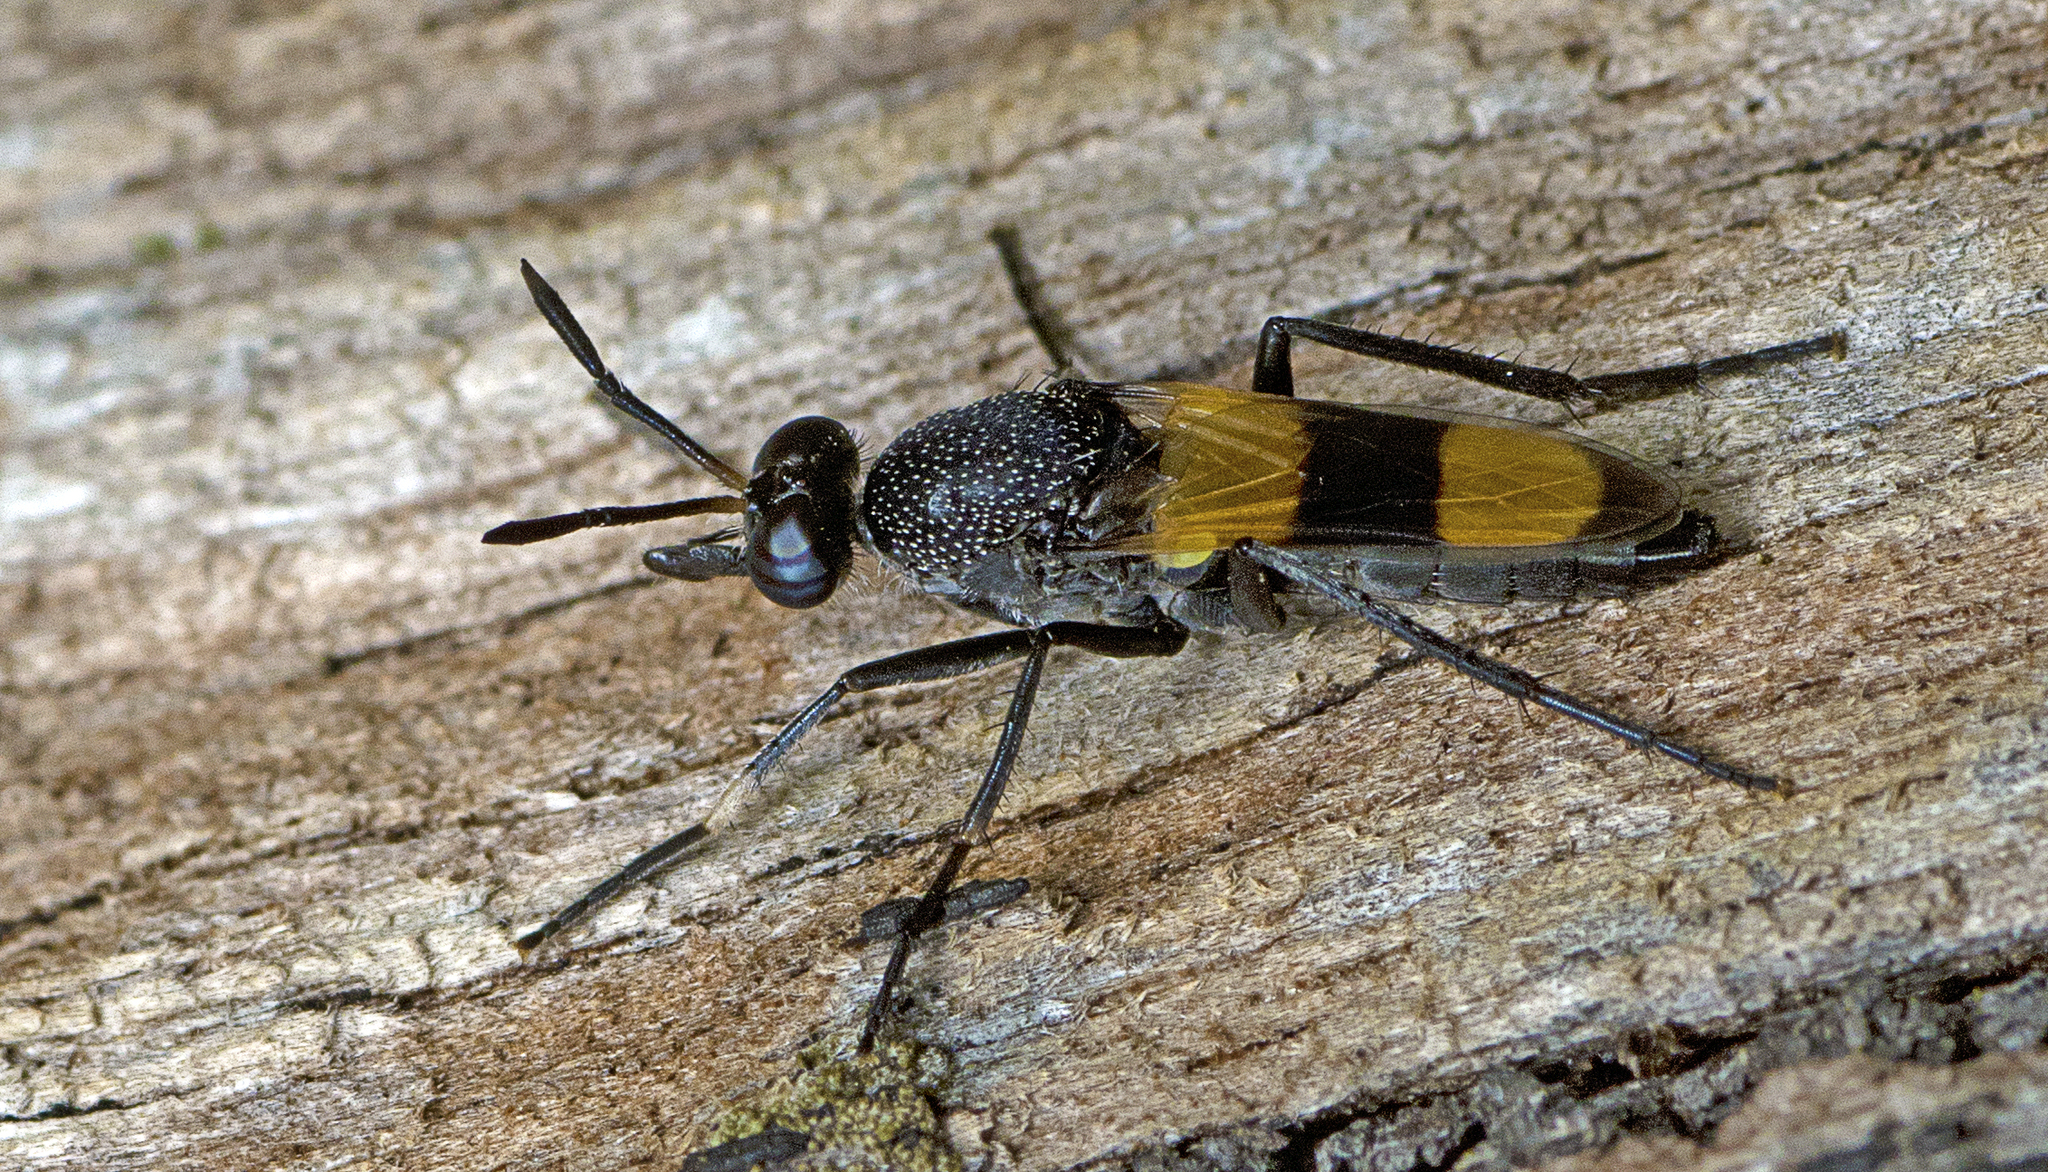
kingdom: Animalia
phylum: Arthropoda
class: Insecta
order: Diptera
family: Therevidae
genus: Agapophytus
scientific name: Agapophytus aterrimus
